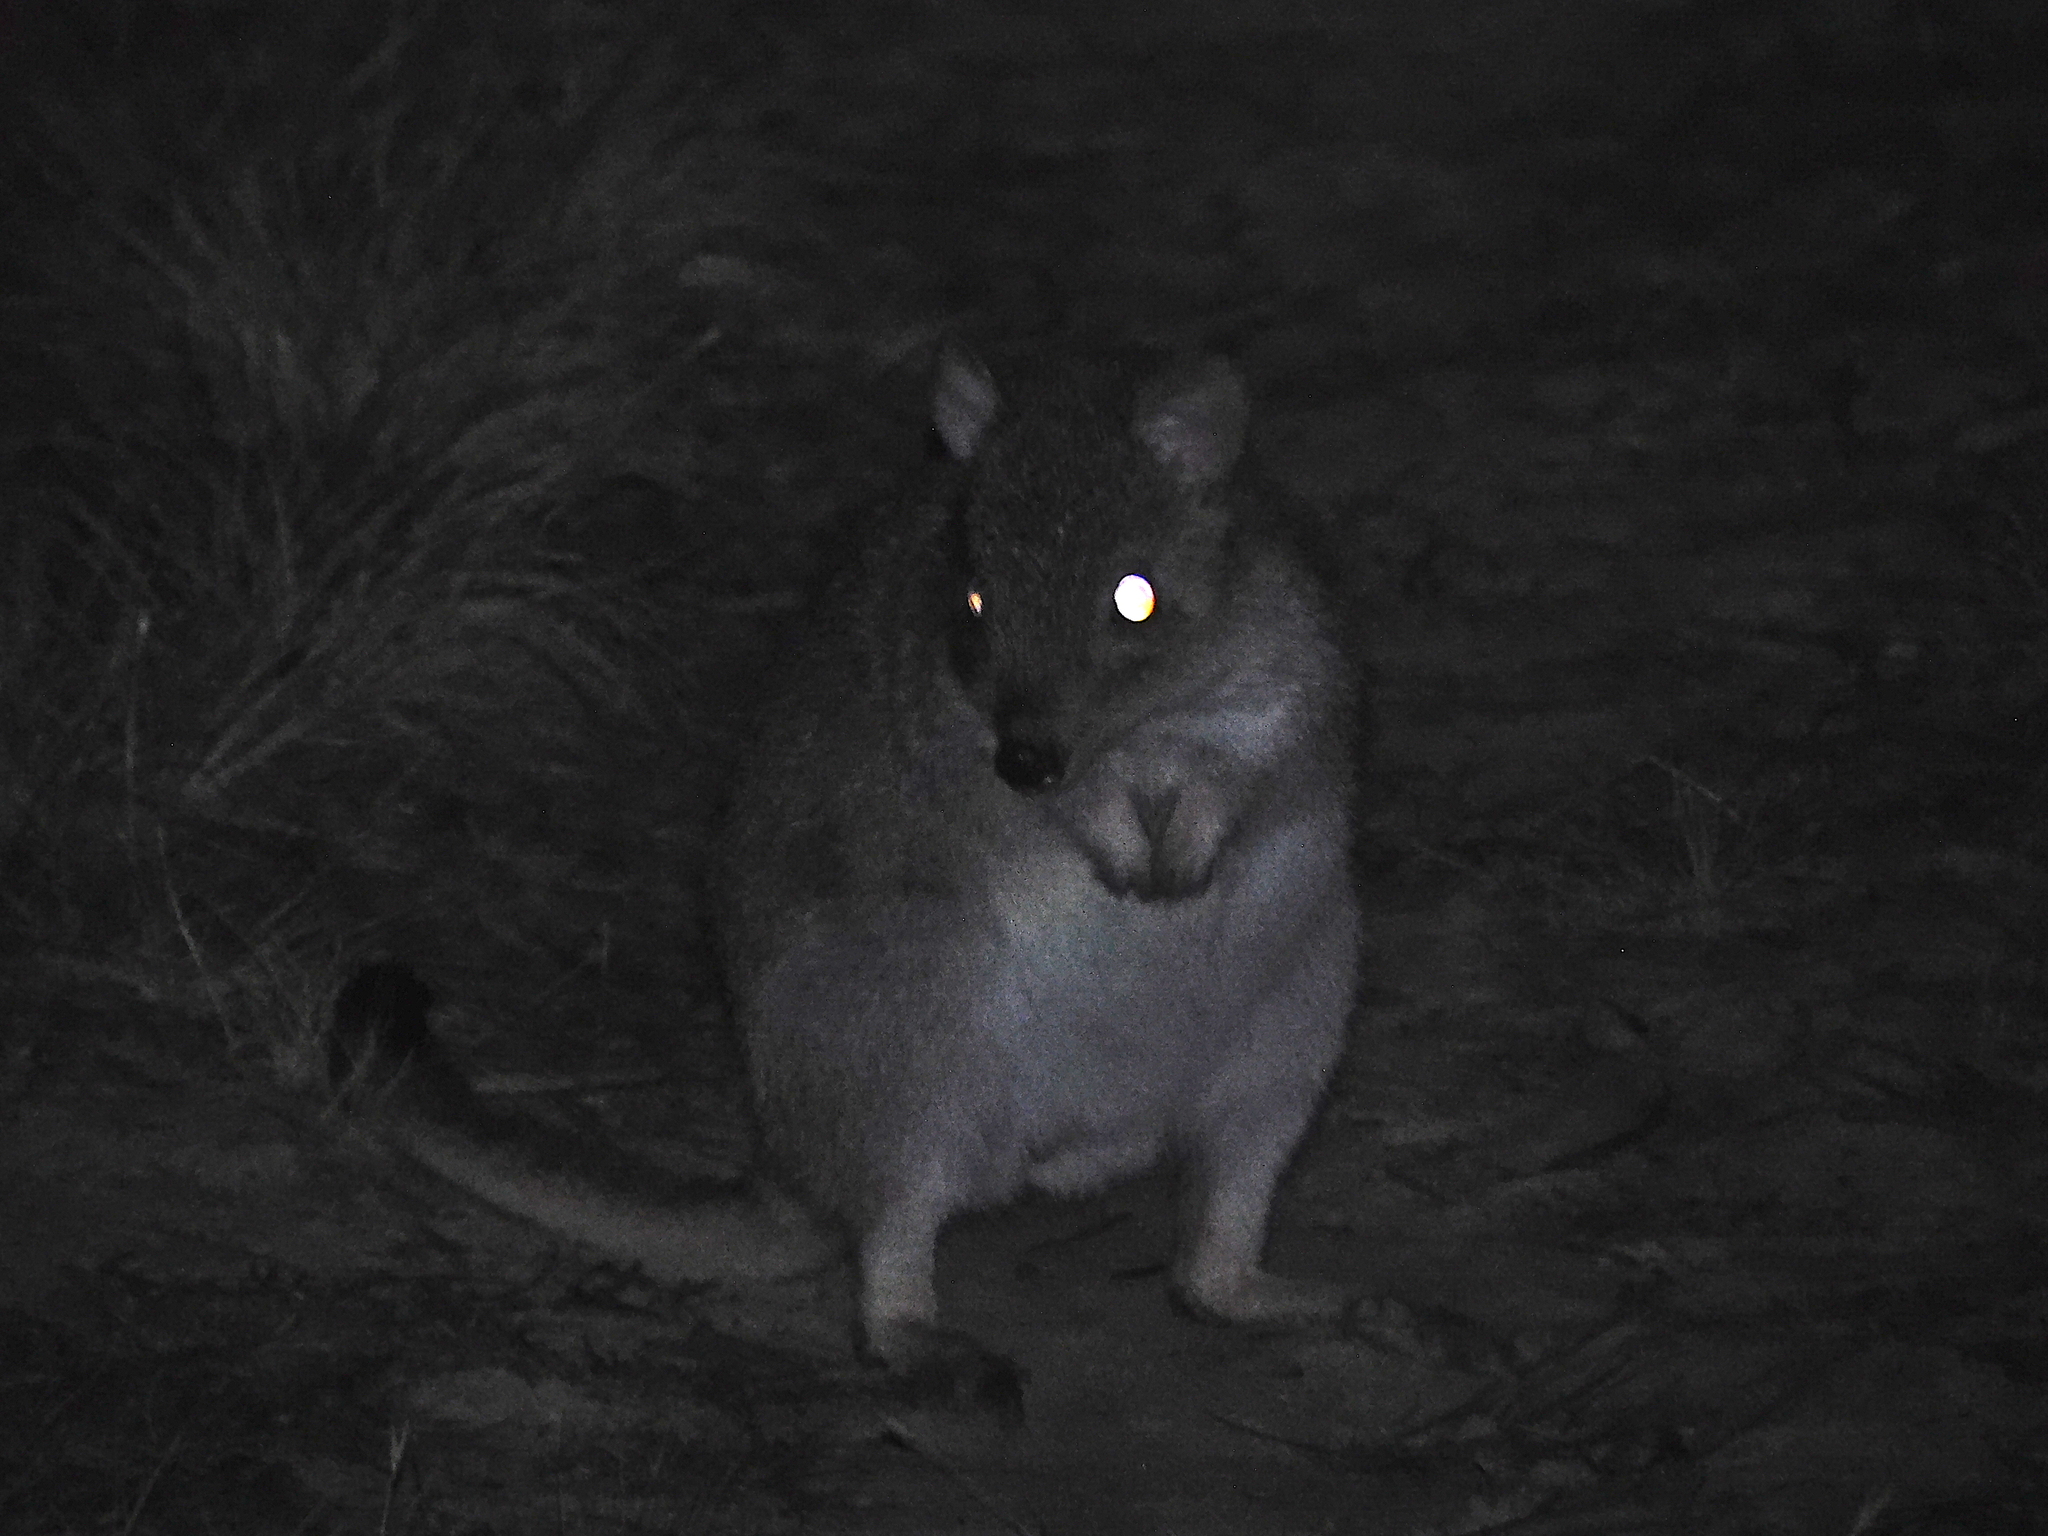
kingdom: Animalia
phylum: Chordata
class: Mammalia
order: Diprotodontia
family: Potoroidae
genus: Bettongia
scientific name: Bettongia gaimardi
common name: Eastern bettong
